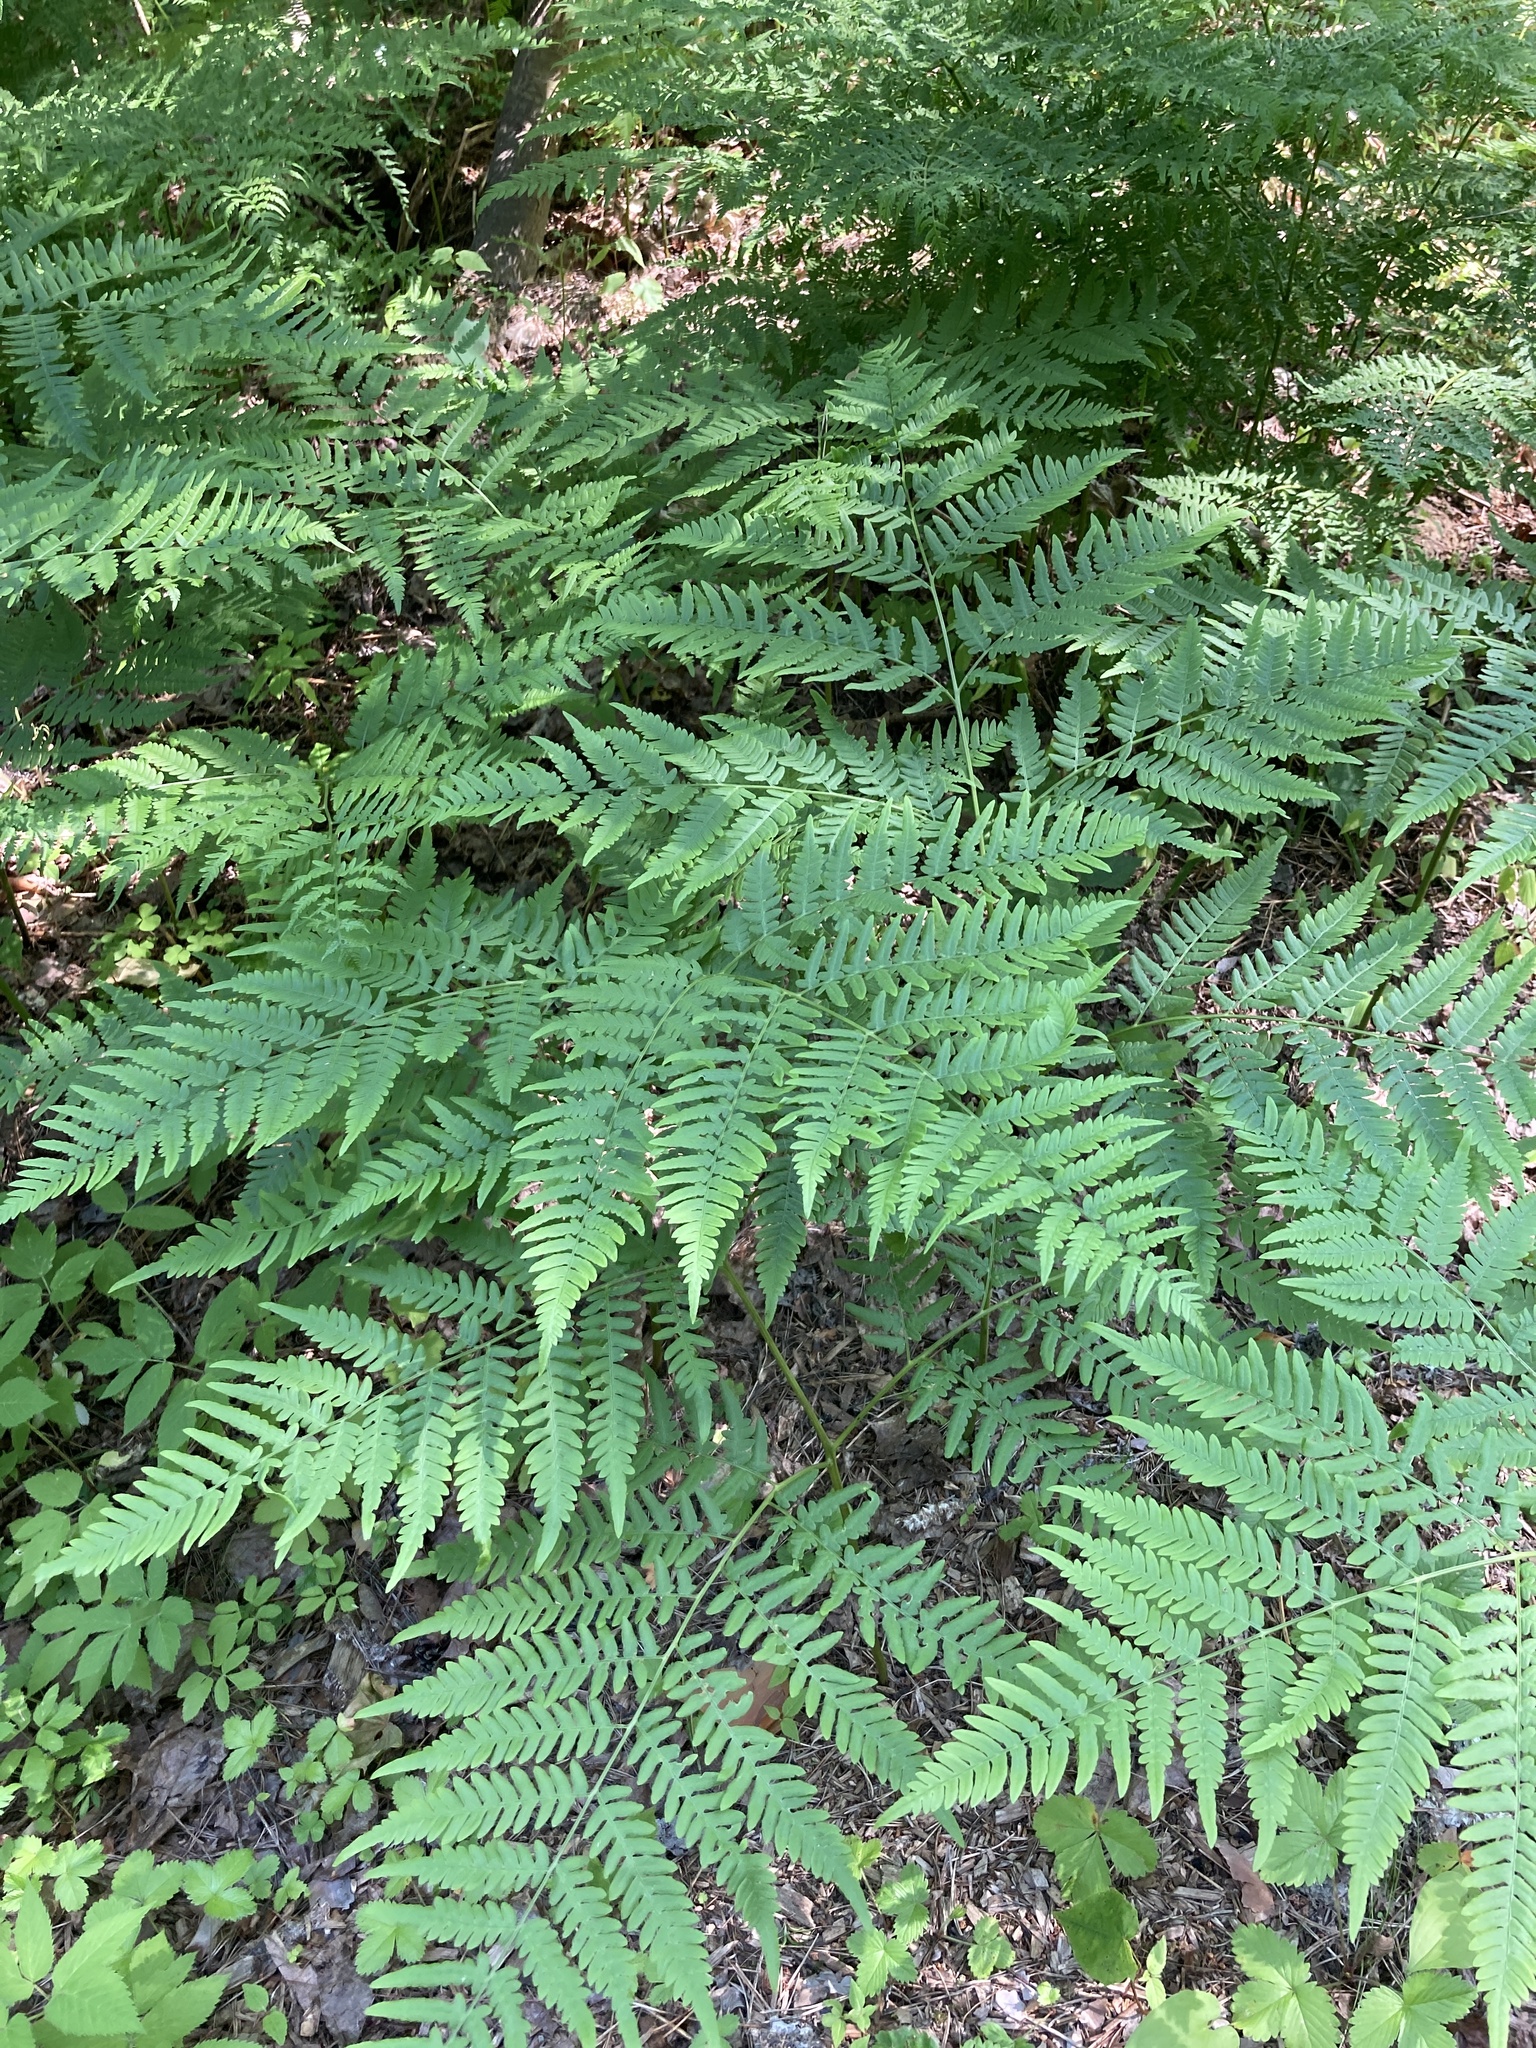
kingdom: Plantae
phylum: Tracheophyta
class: Polypodiopsida
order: Polypodiales
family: Dennstaedtiaceae
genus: Pteridium
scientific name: Pteridium aquilinum
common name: Bracken
